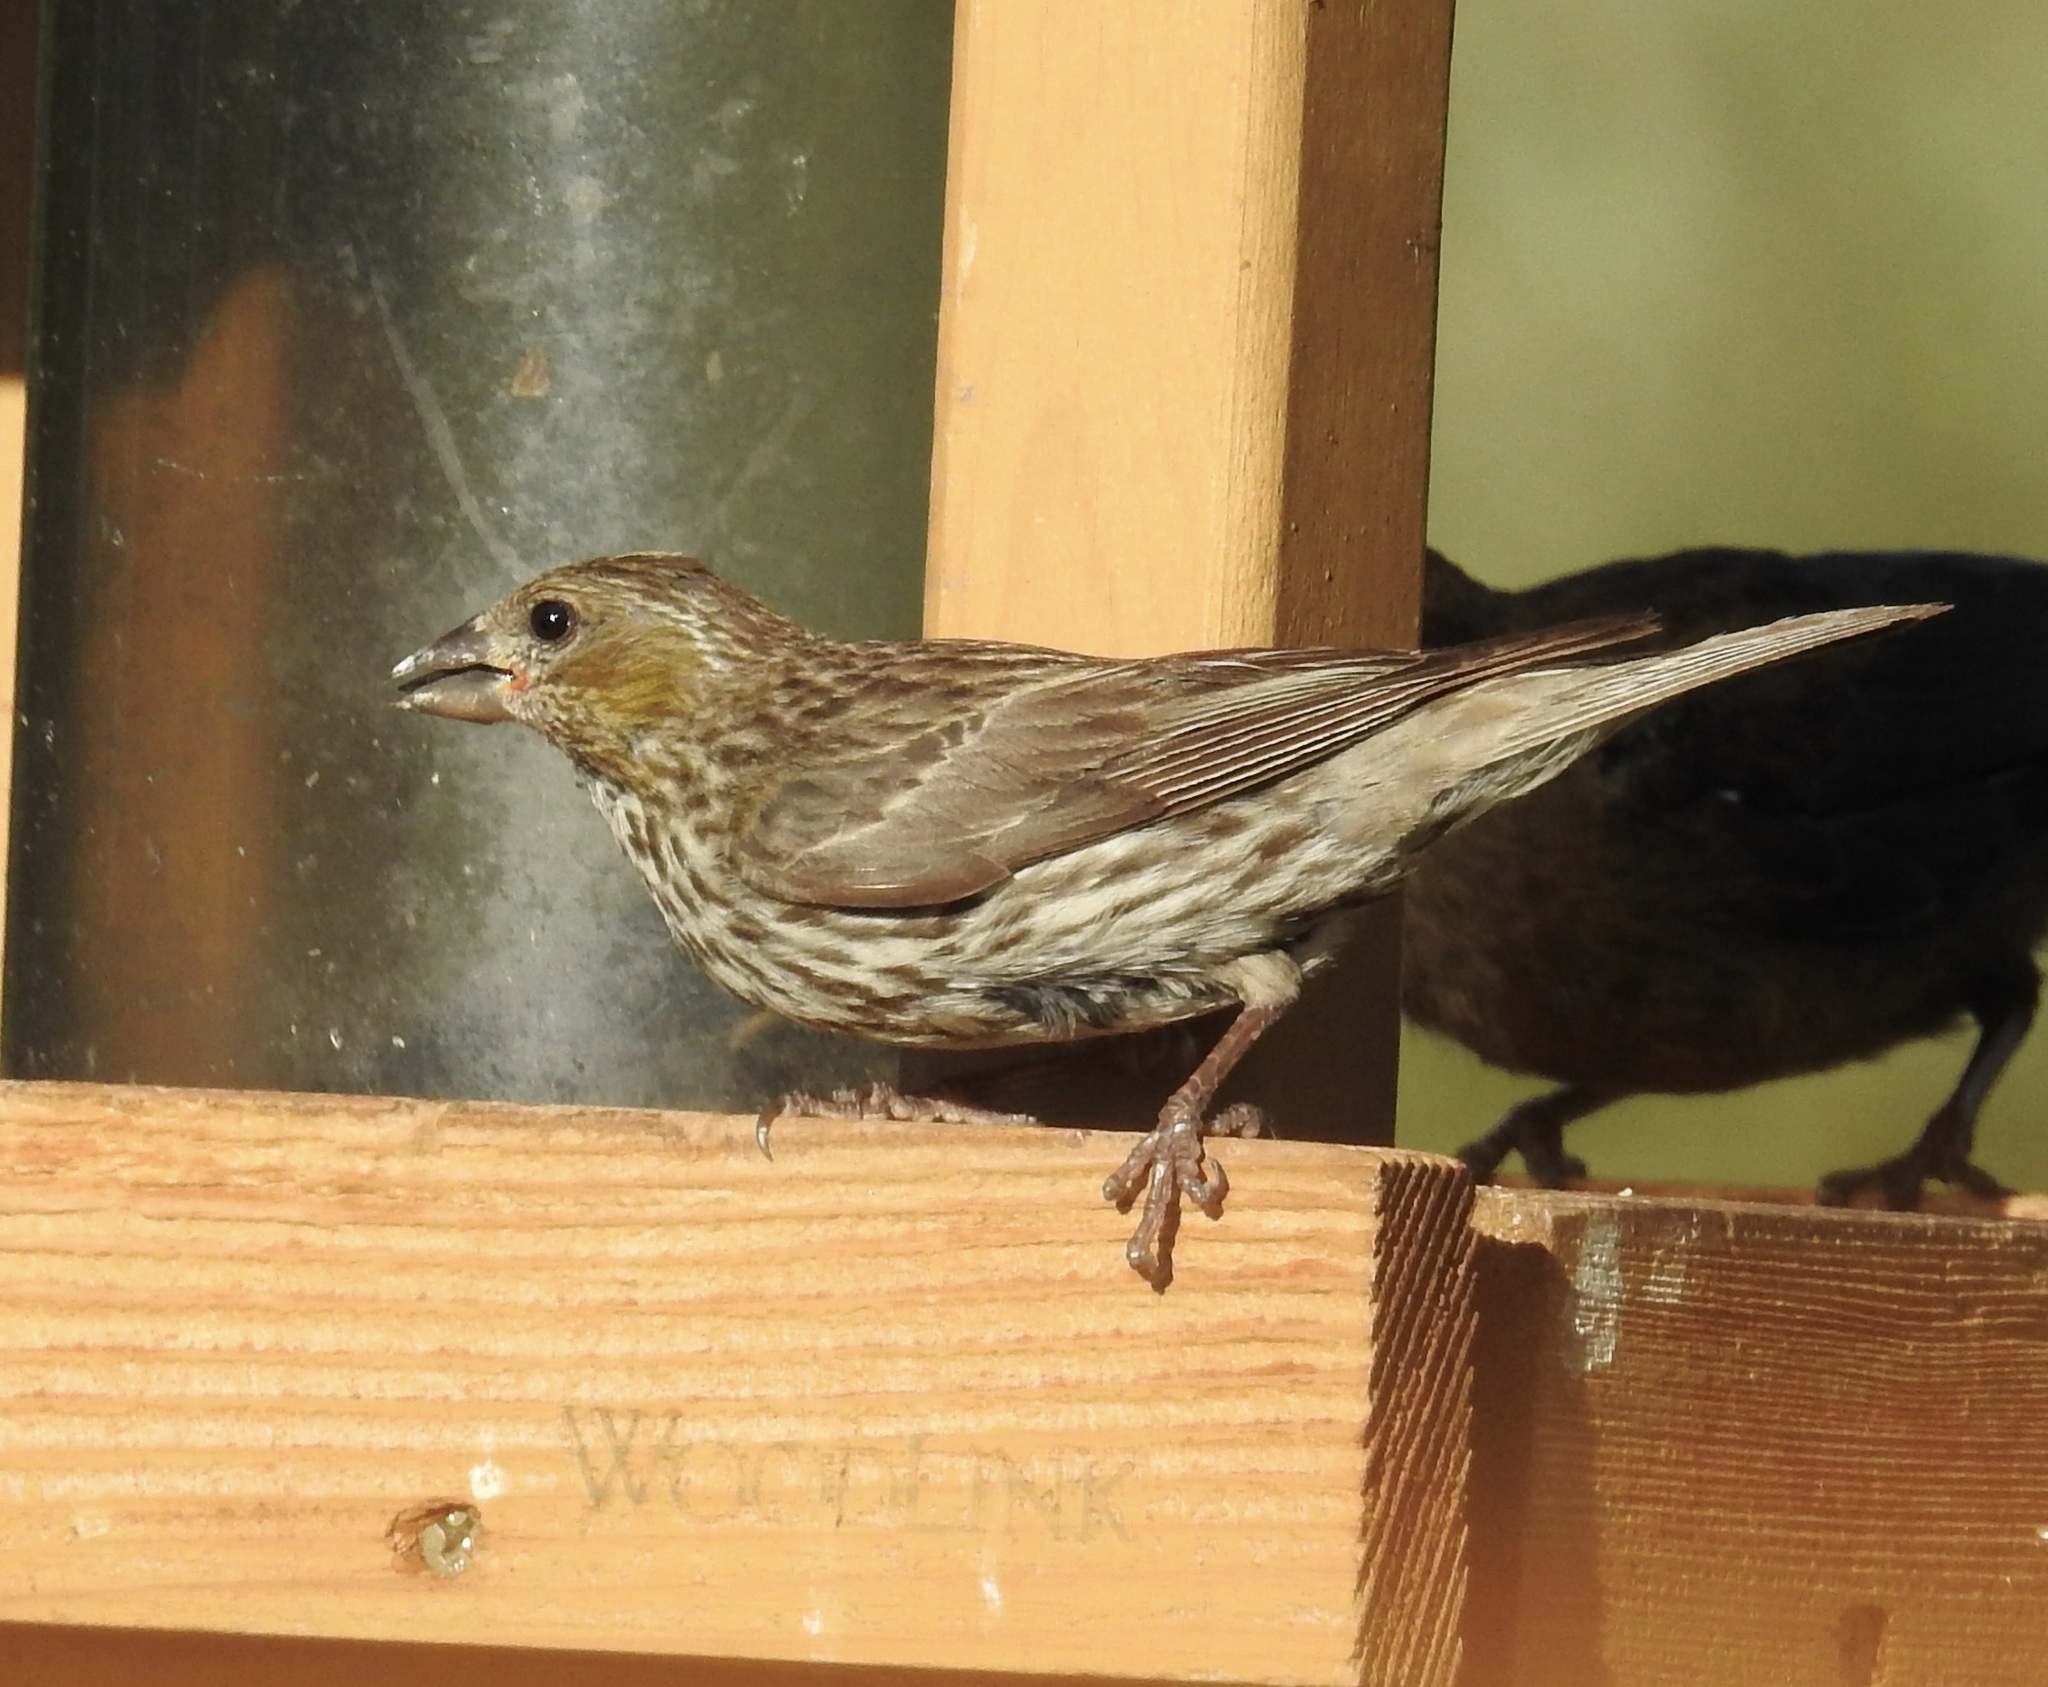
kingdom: Animalia
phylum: Chordata
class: Aves
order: Passeriformes
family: Fringillidae
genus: Haemorhous
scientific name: Haemorhous cassinii
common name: Cassin's finch
